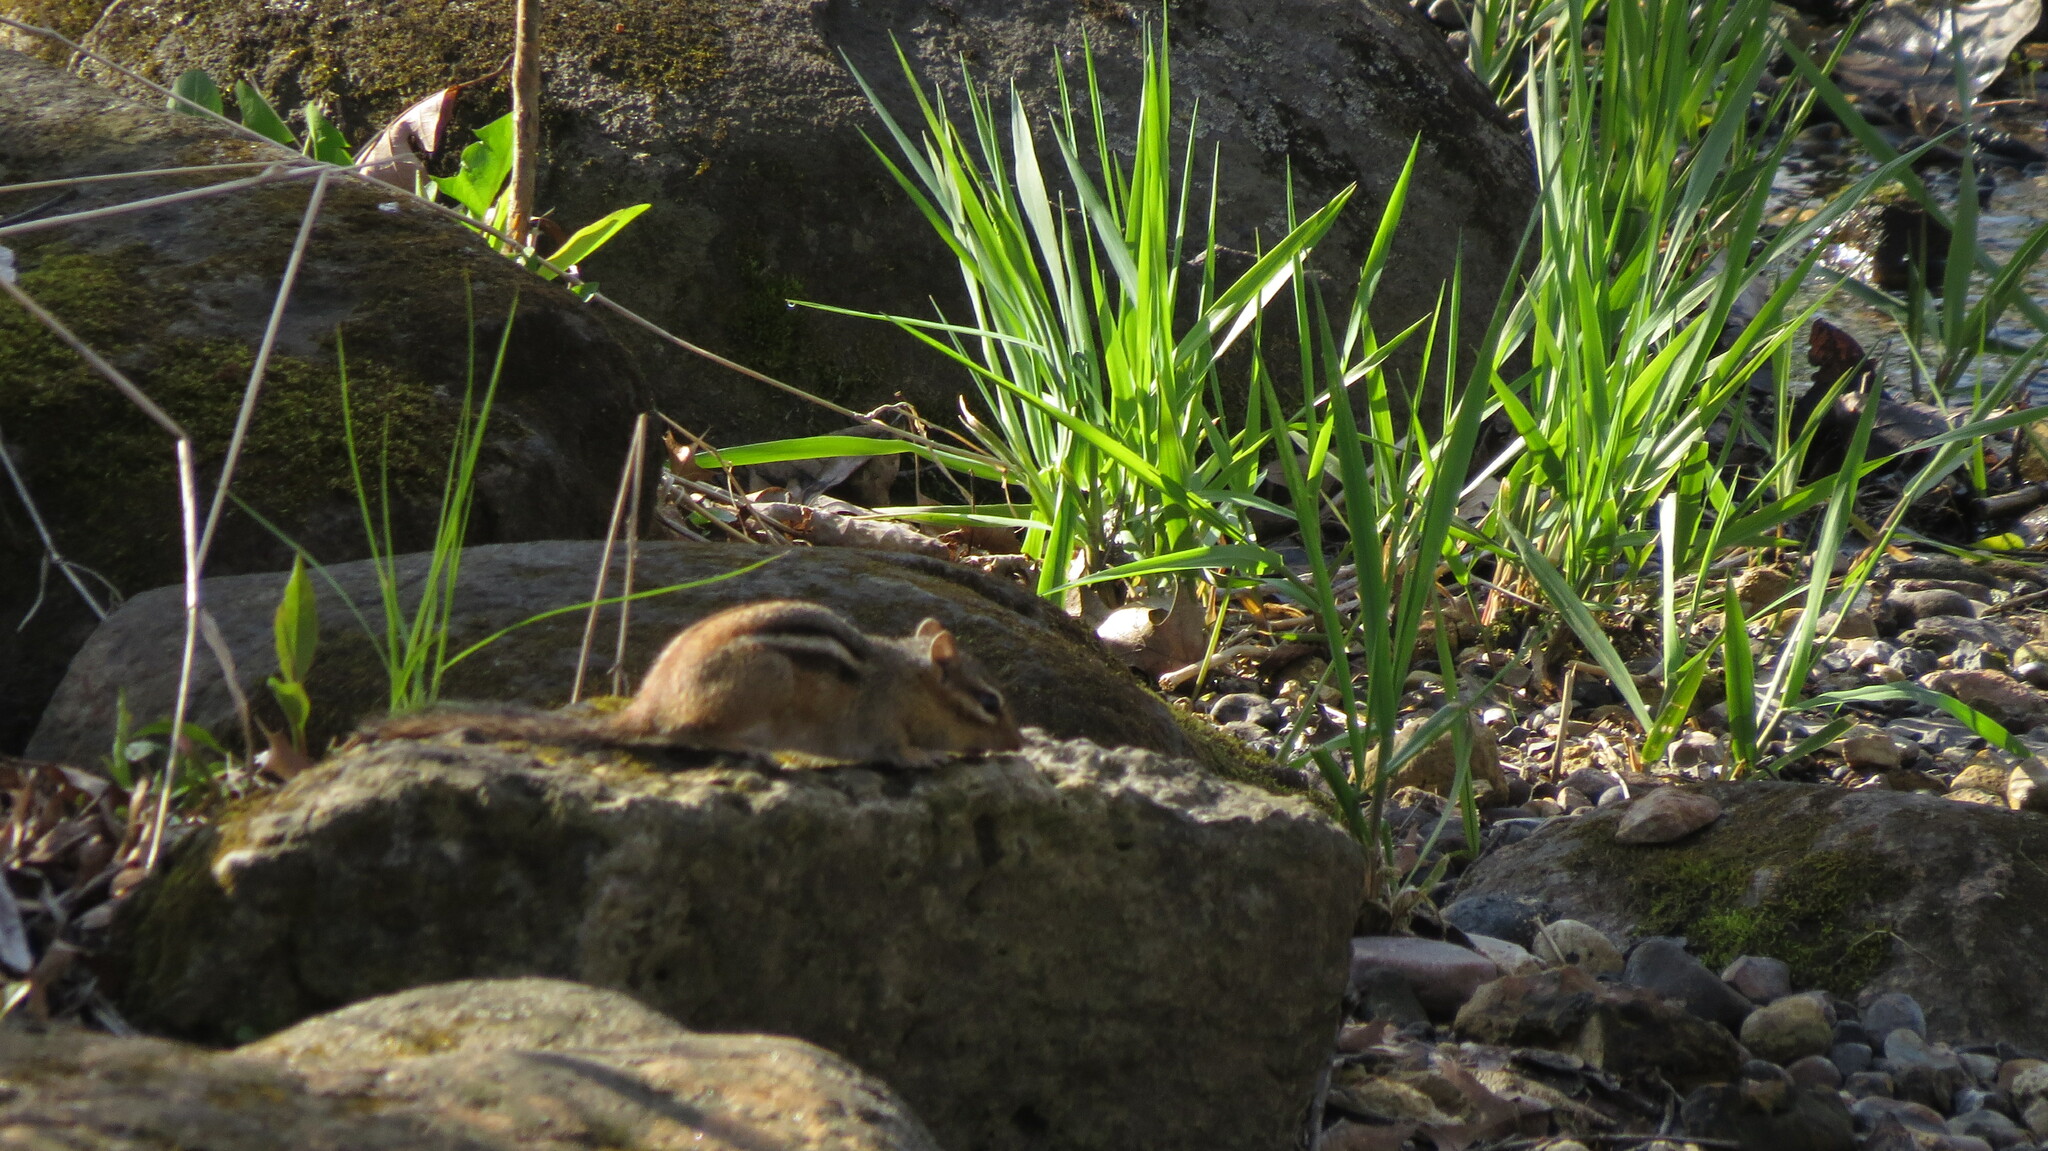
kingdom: Animalia
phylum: Chordata
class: Mammalia
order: Rodentia
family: Sciuridae
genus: Tamias
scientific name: Tamias striatus
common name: Eastern chipmunk
